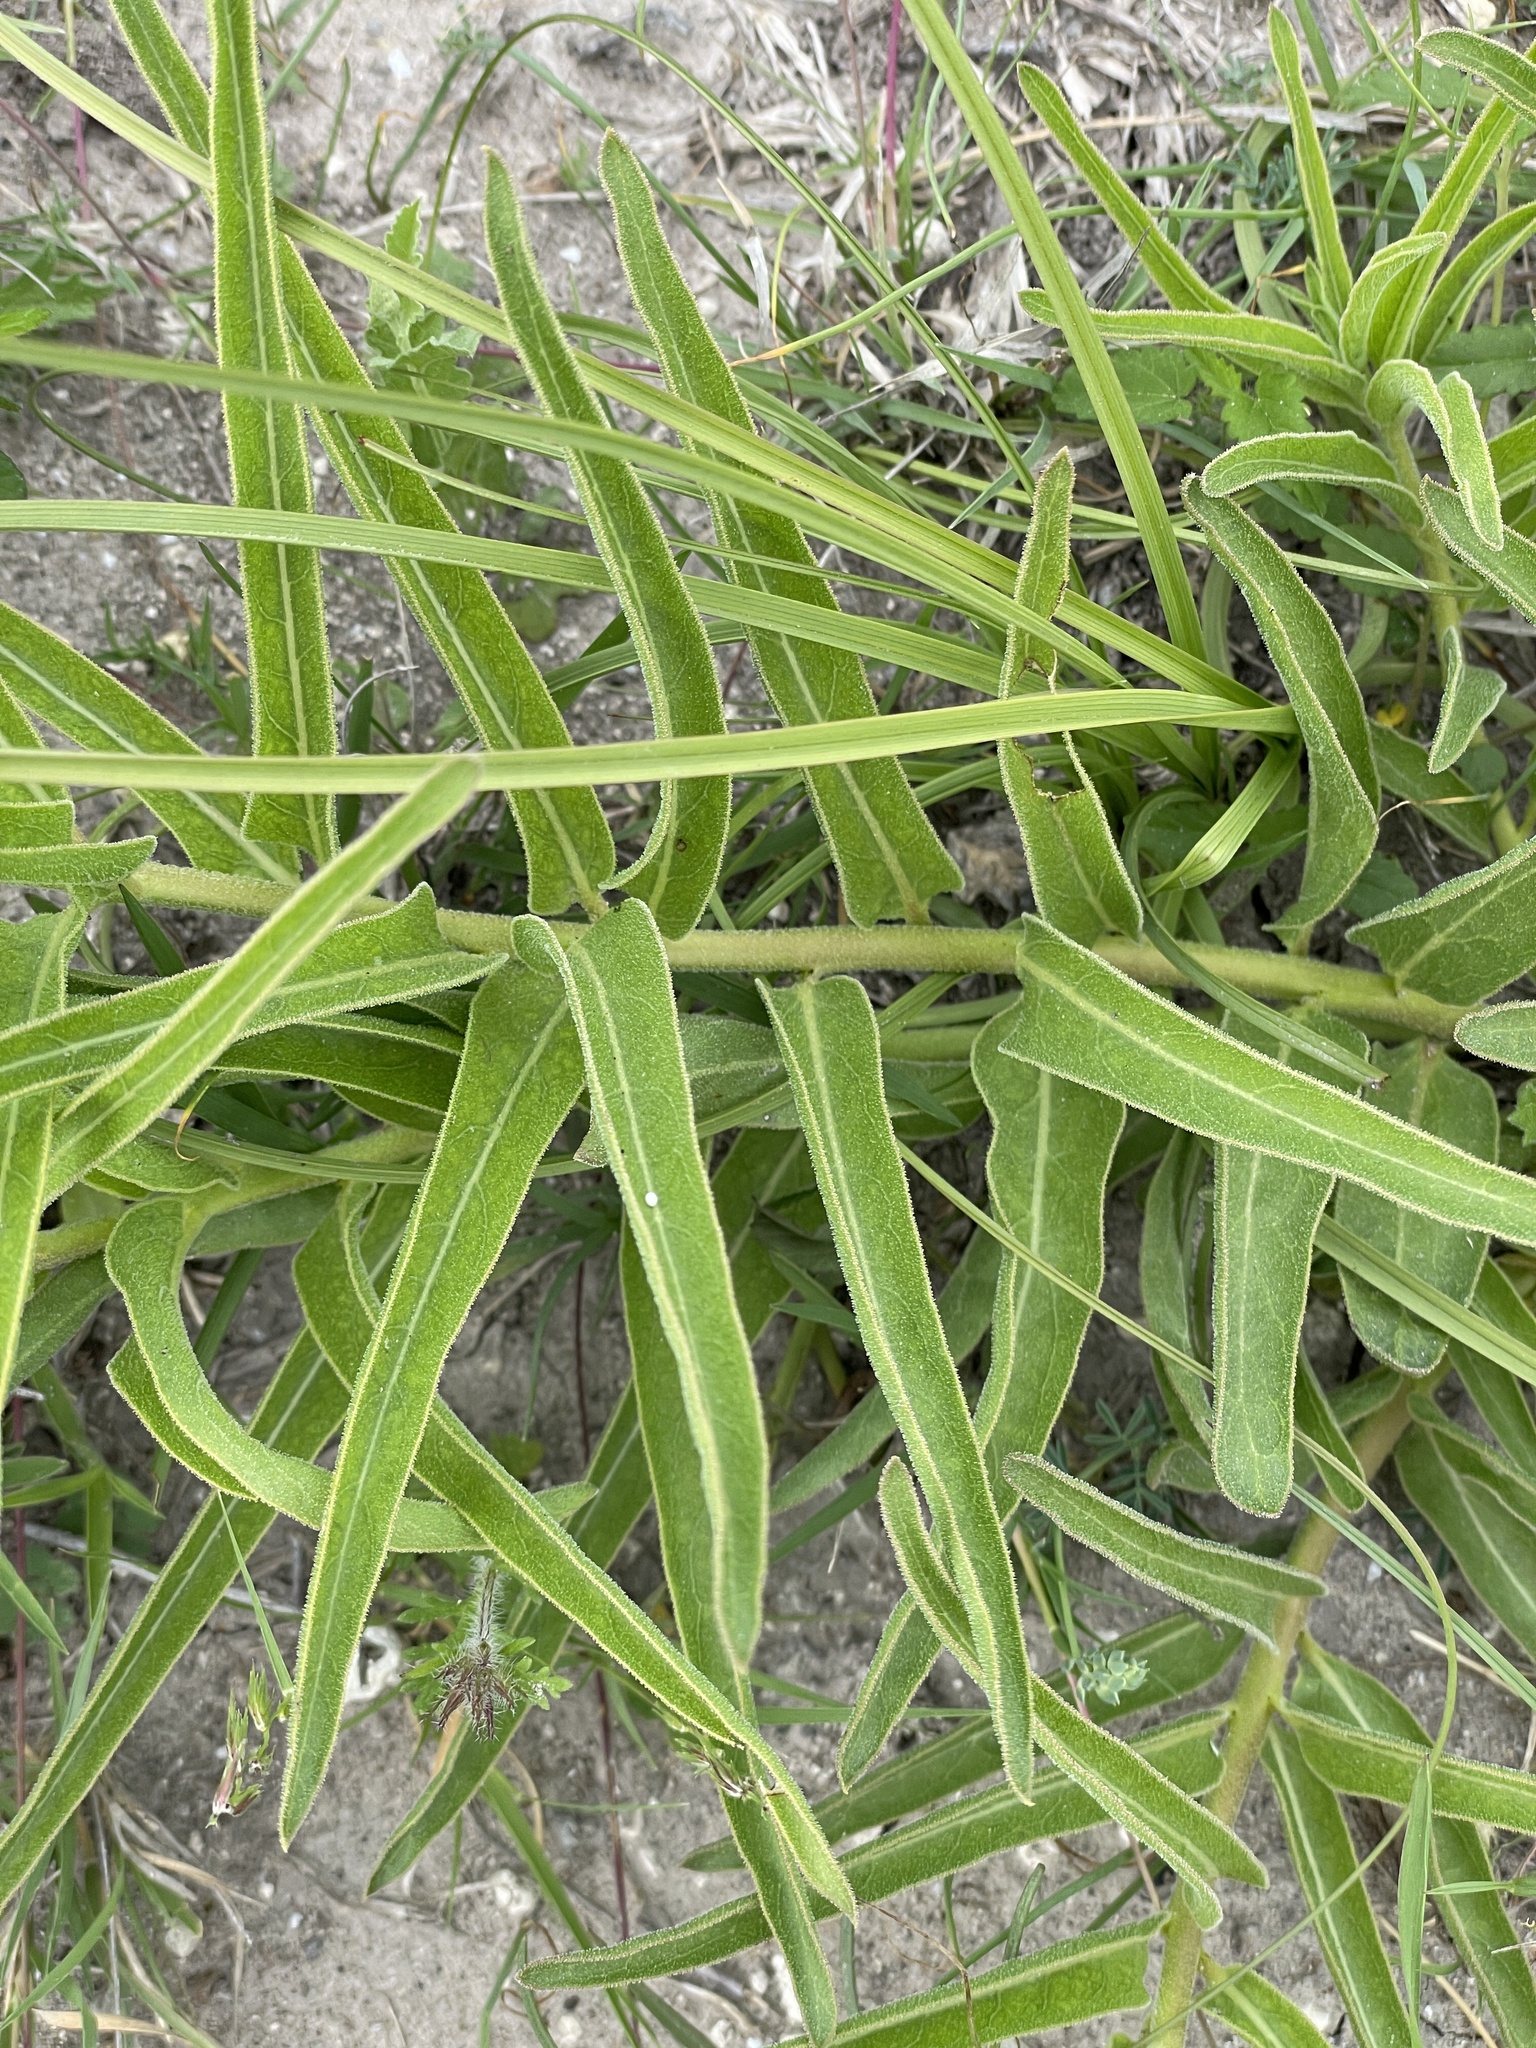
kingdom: Plantae
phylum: Tracheophyta
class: Magnoliopsida
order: Gentianales
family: Apocynaceae
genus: Asclepias
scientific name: Asclepias asperula
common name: Antelope horns
